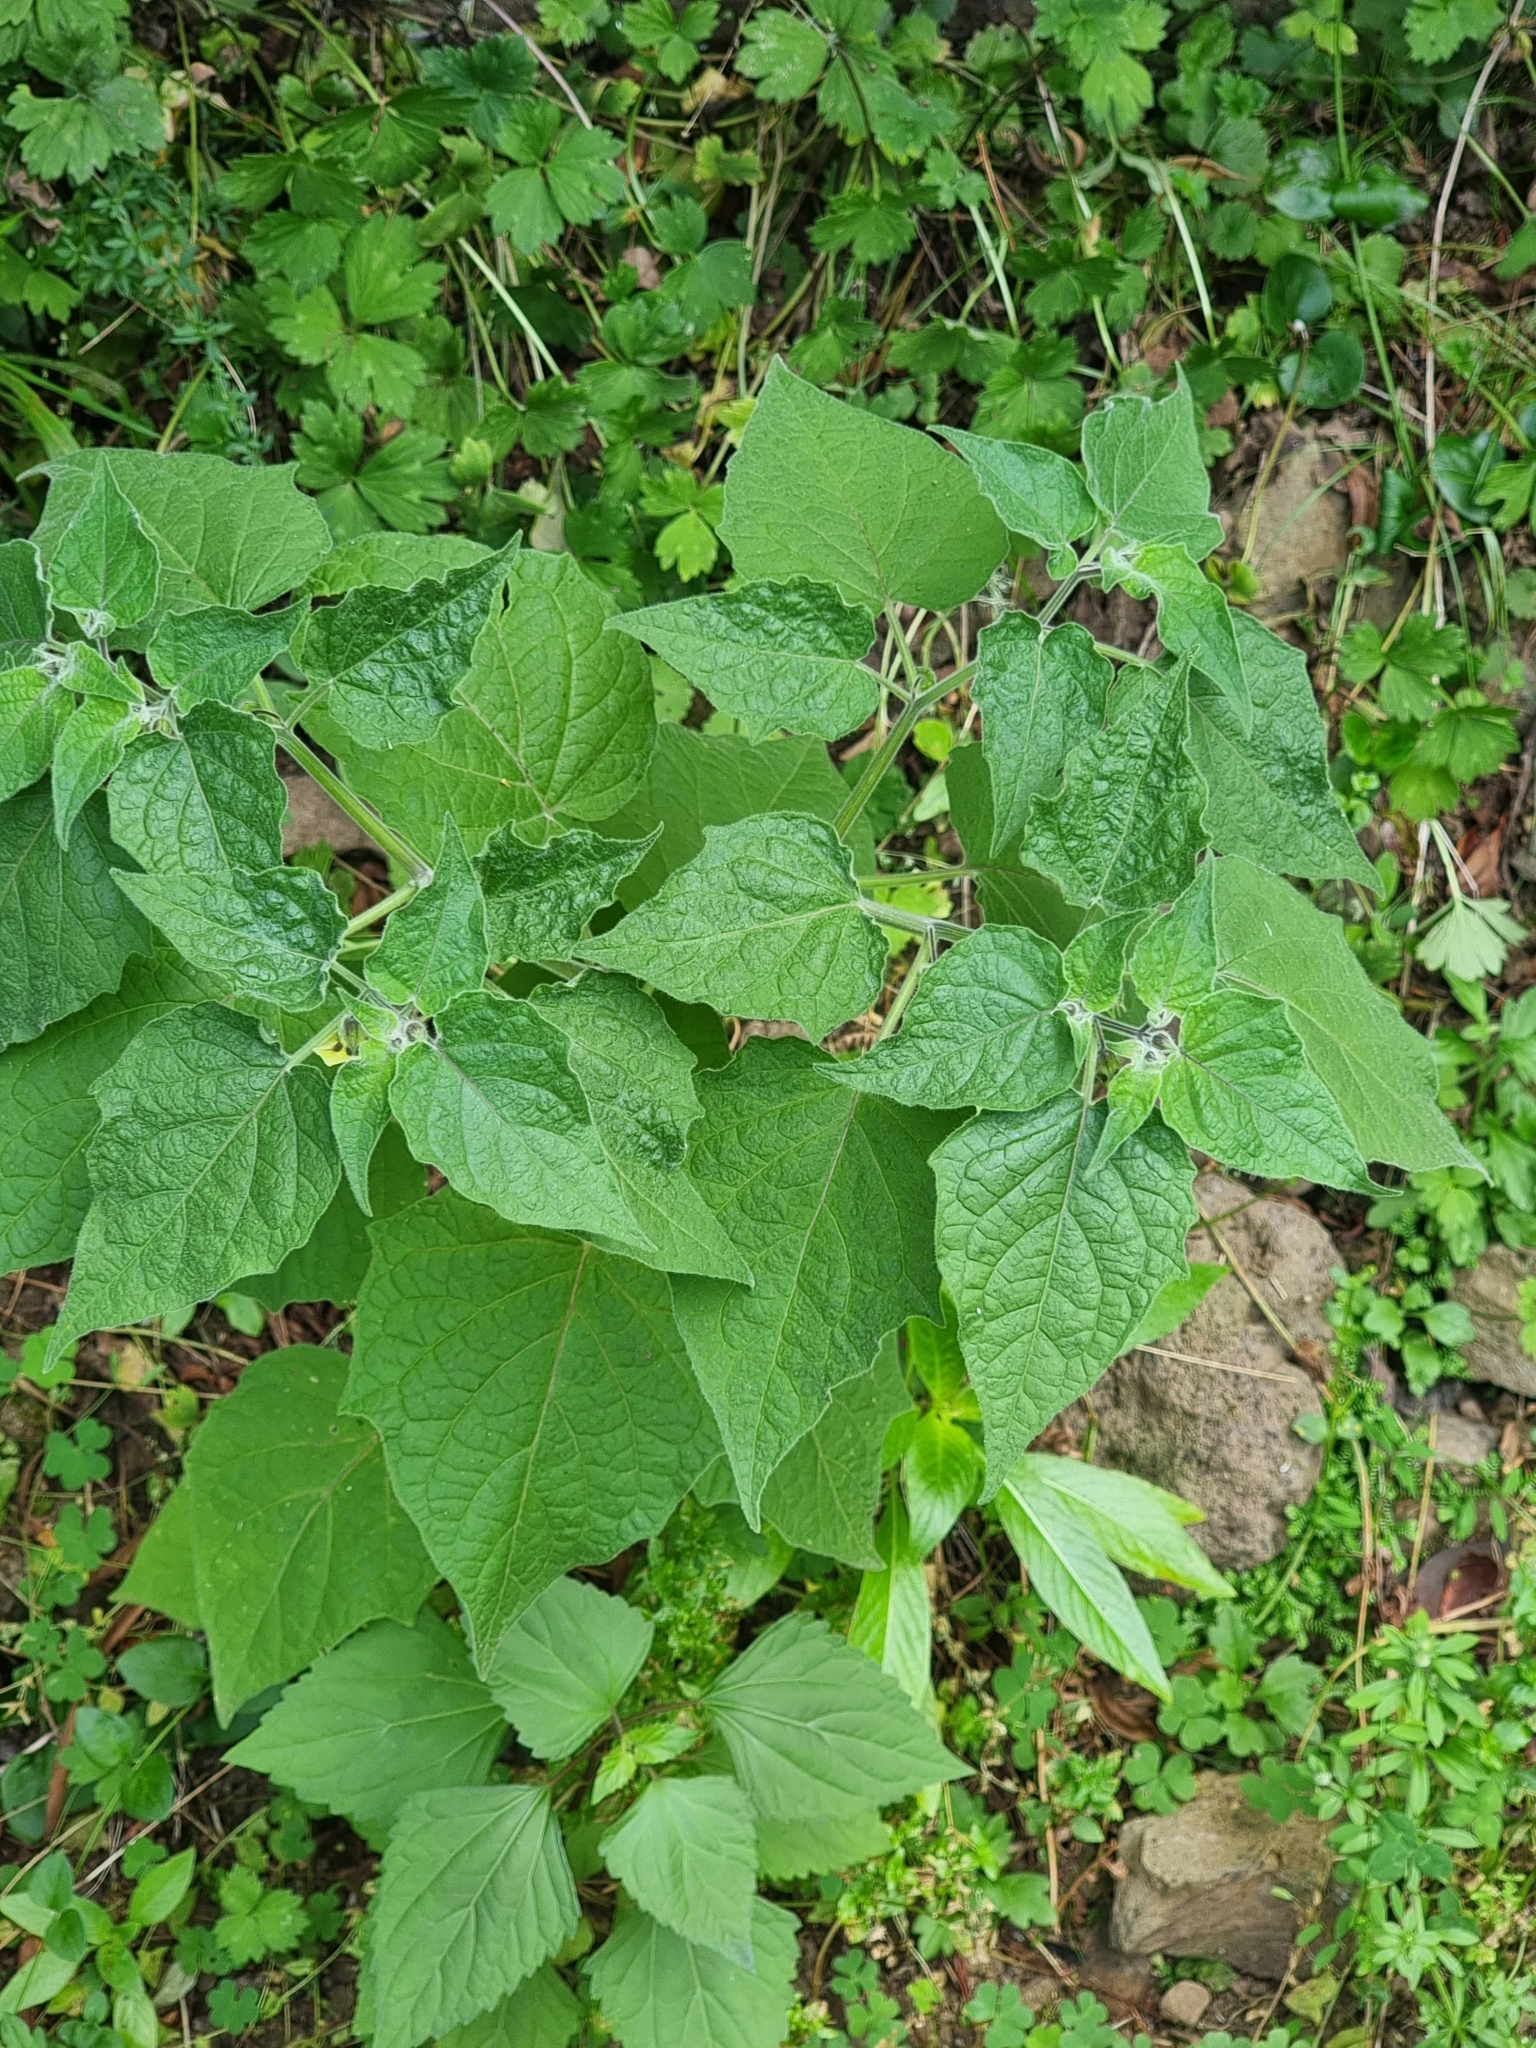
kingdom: Plantae
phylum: Tracheophyta
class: Magnoliopsida
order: Solanales
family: Solanaceae
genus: Physalis
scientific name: Physalis peruviana
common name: Cape-gooseberry
